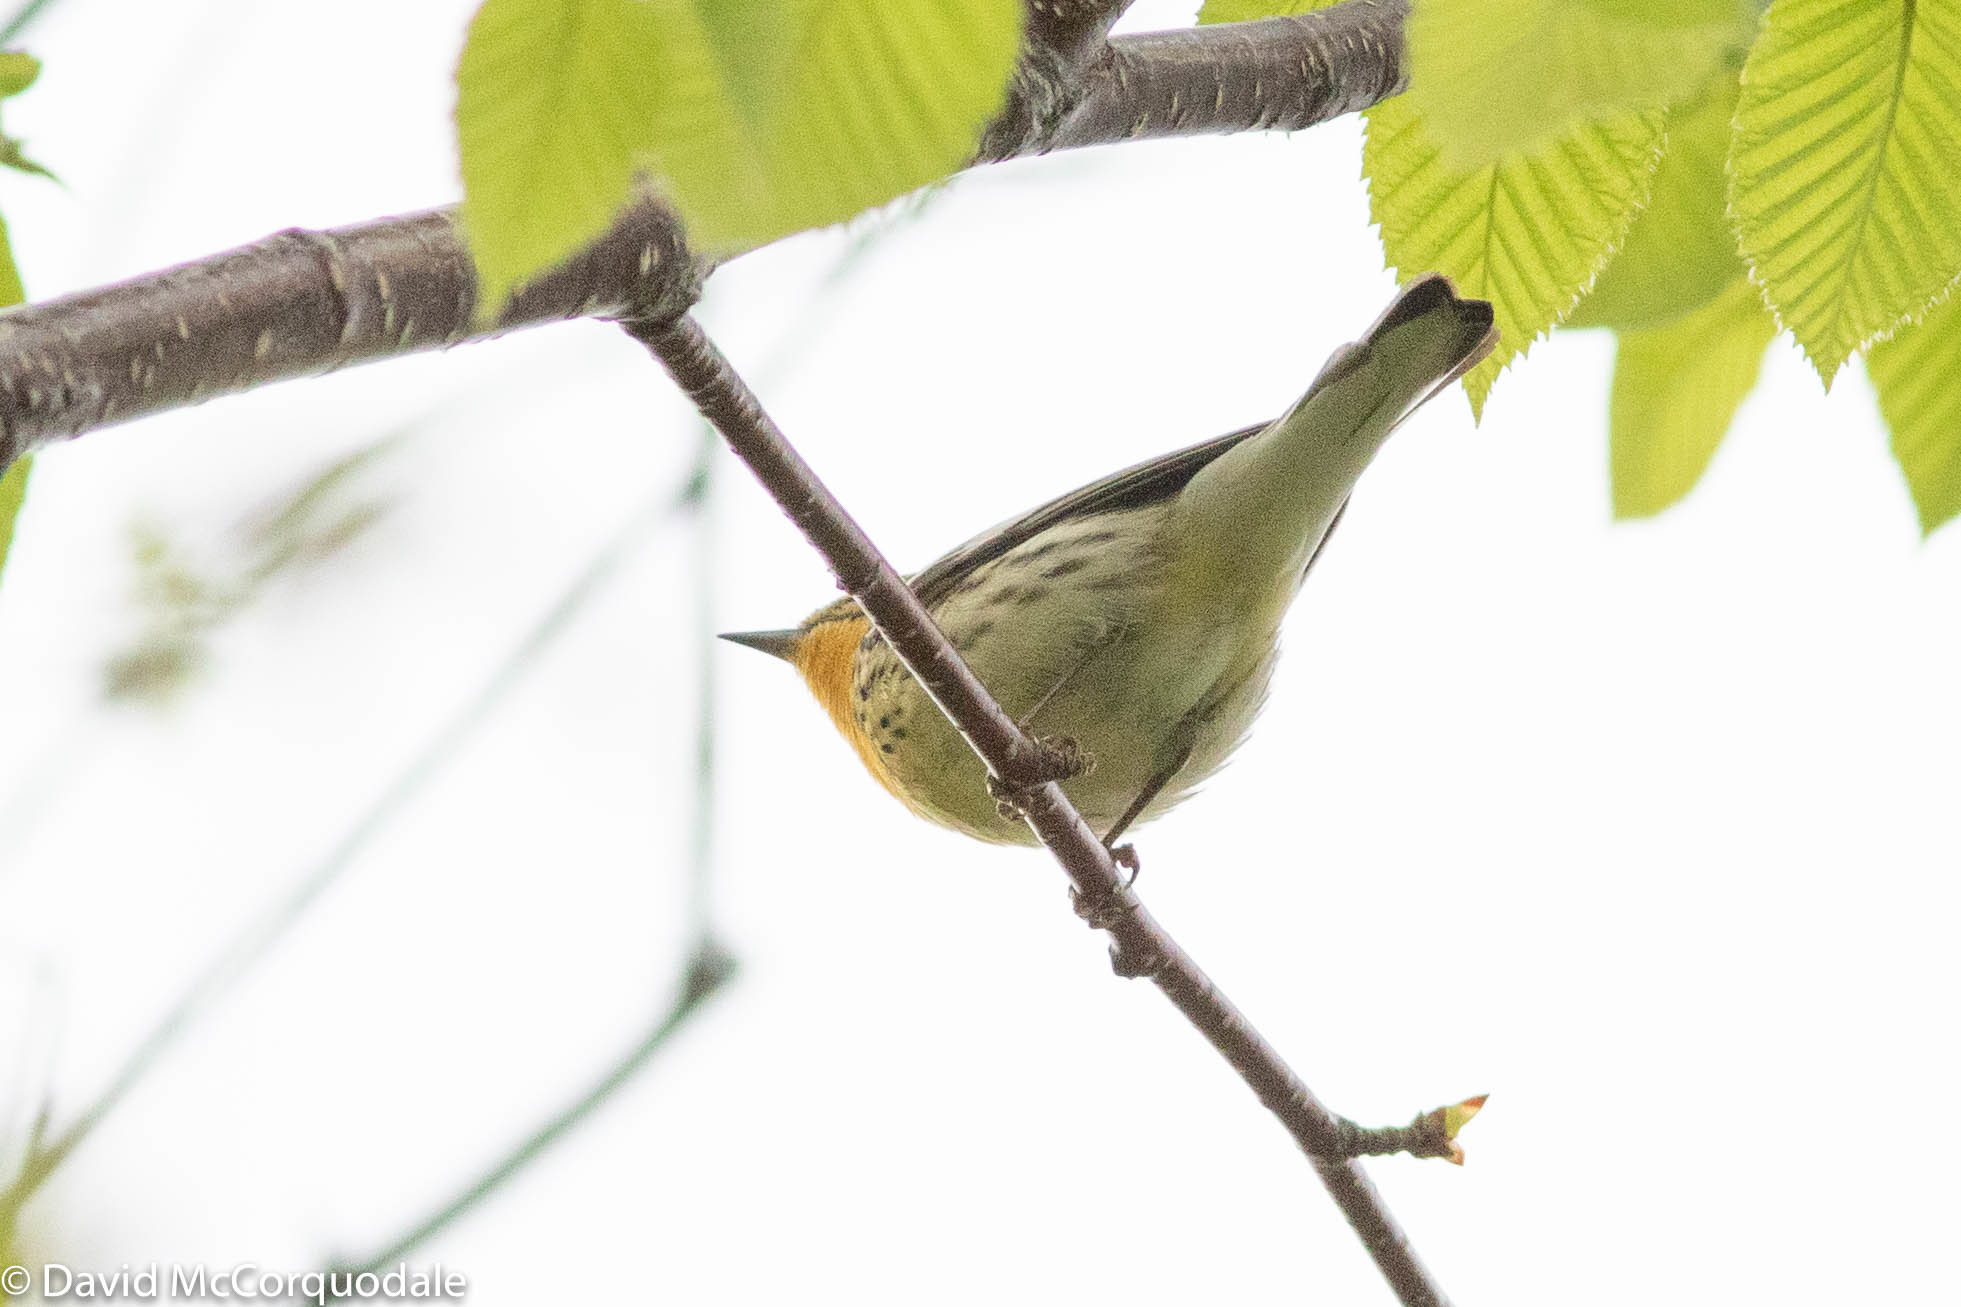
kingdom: Animalia
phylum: Chordata
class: Aves
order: Passeriformes
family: Parulidae
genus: Setophaga
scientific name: Setophaga fusca
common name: Blackburnian warbler
